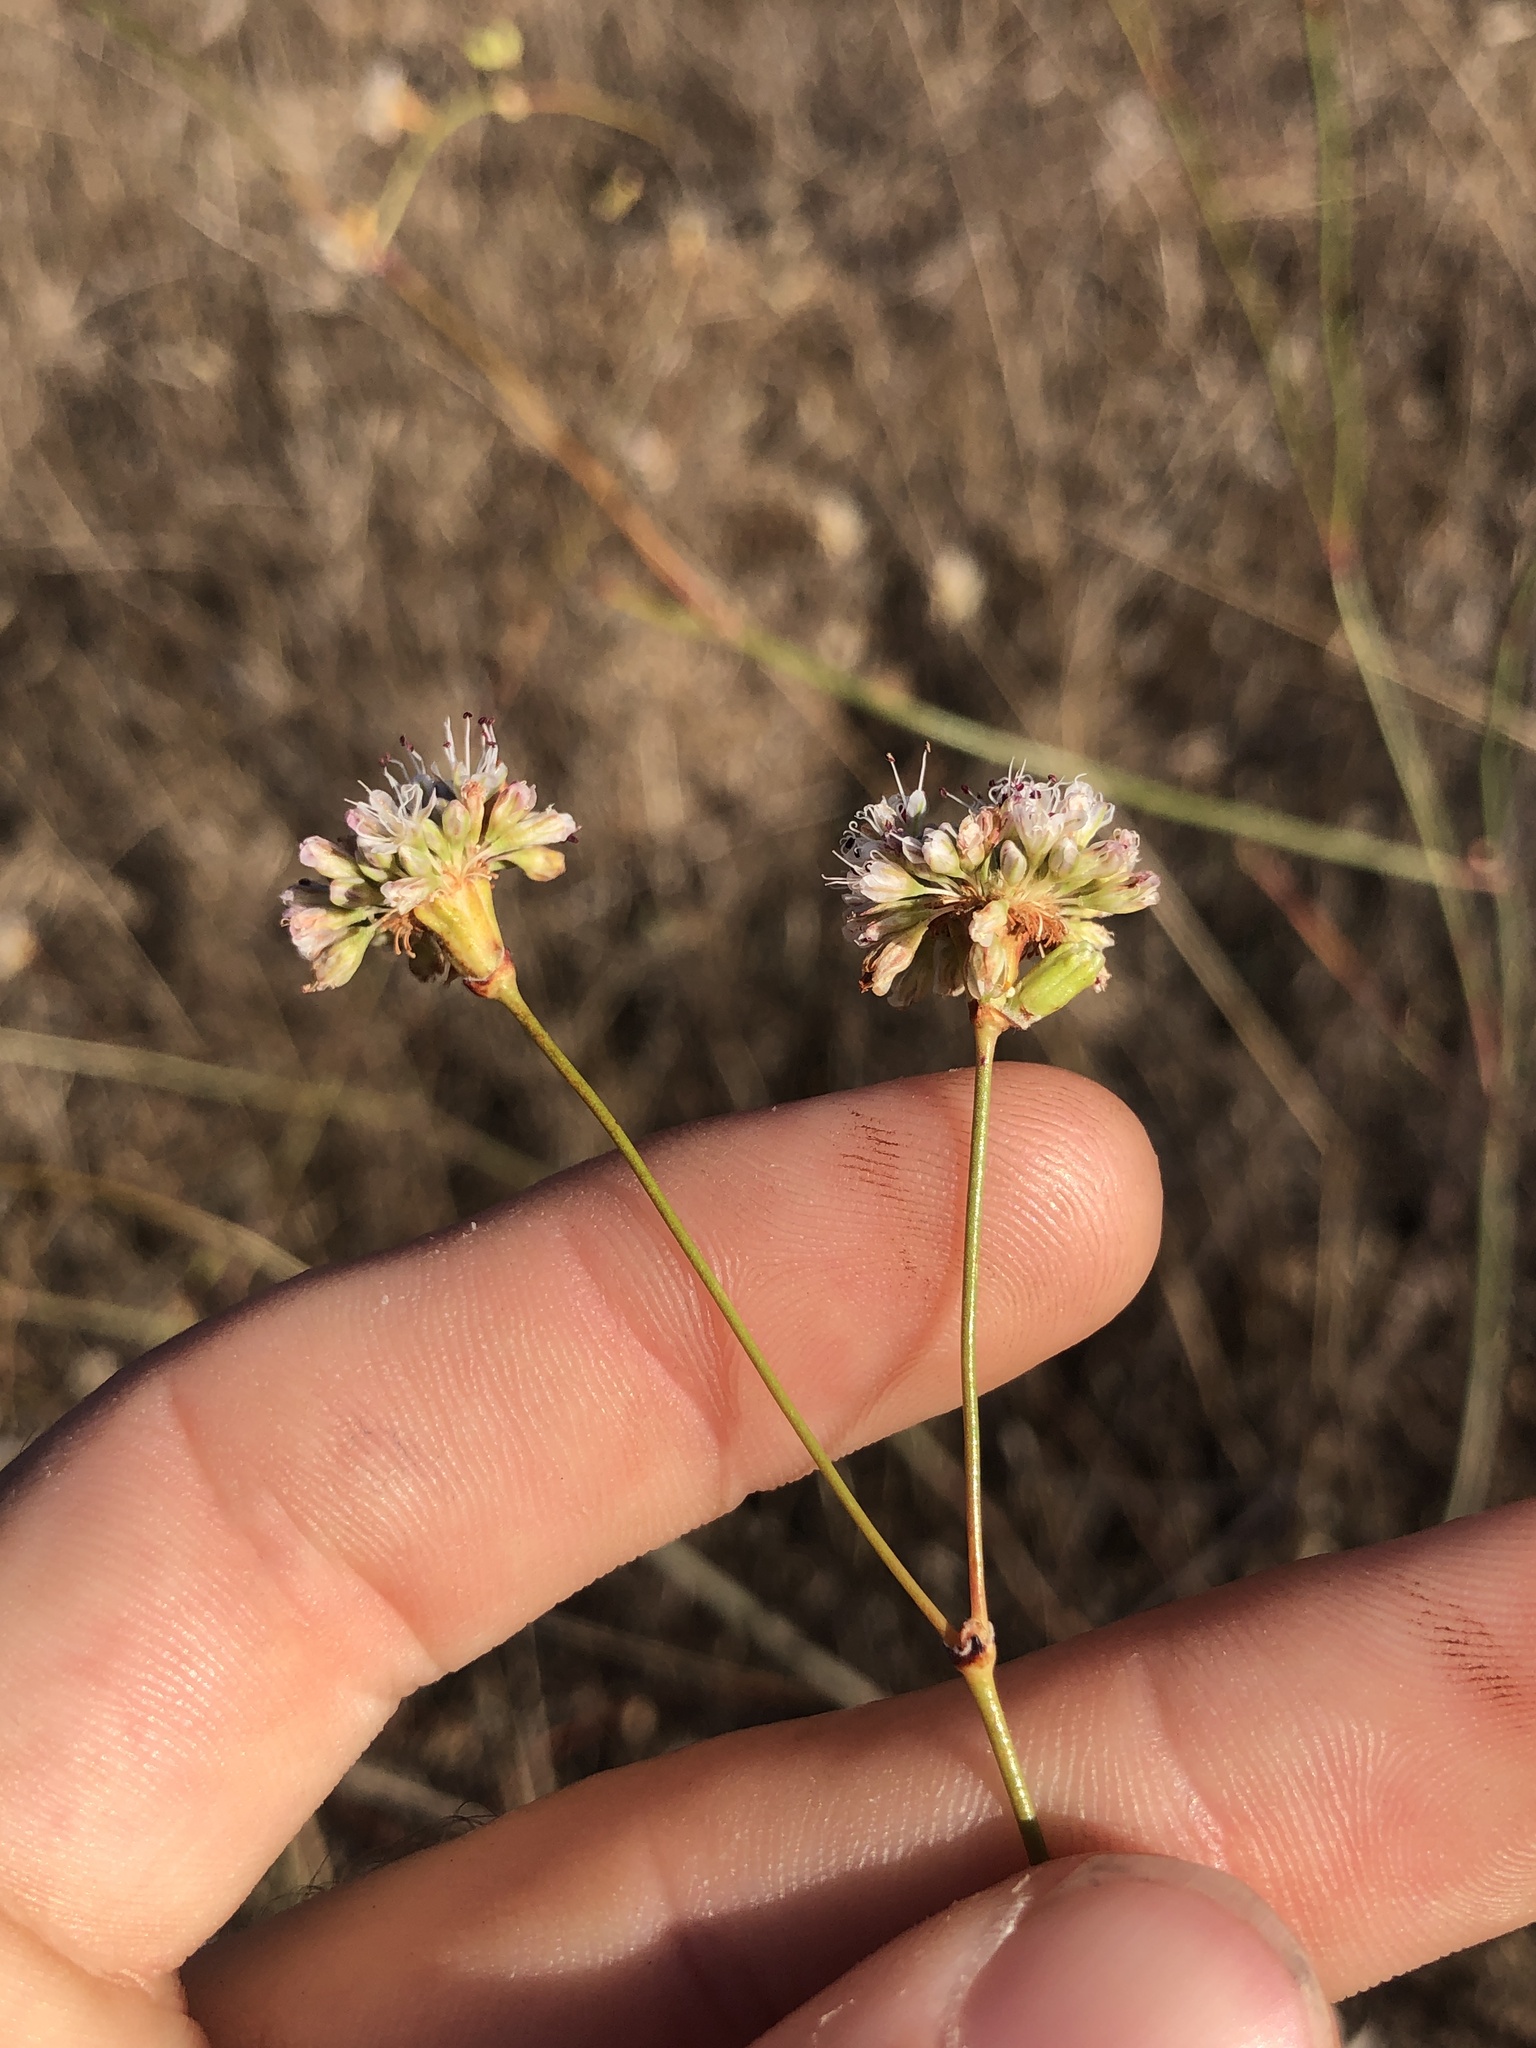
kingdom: Plantae
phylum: Tracheophyta
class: Magnoliopsida
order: Caryophyllales
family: Polygonaceae
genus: Eriogonum
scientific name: Eriogonum nudum
